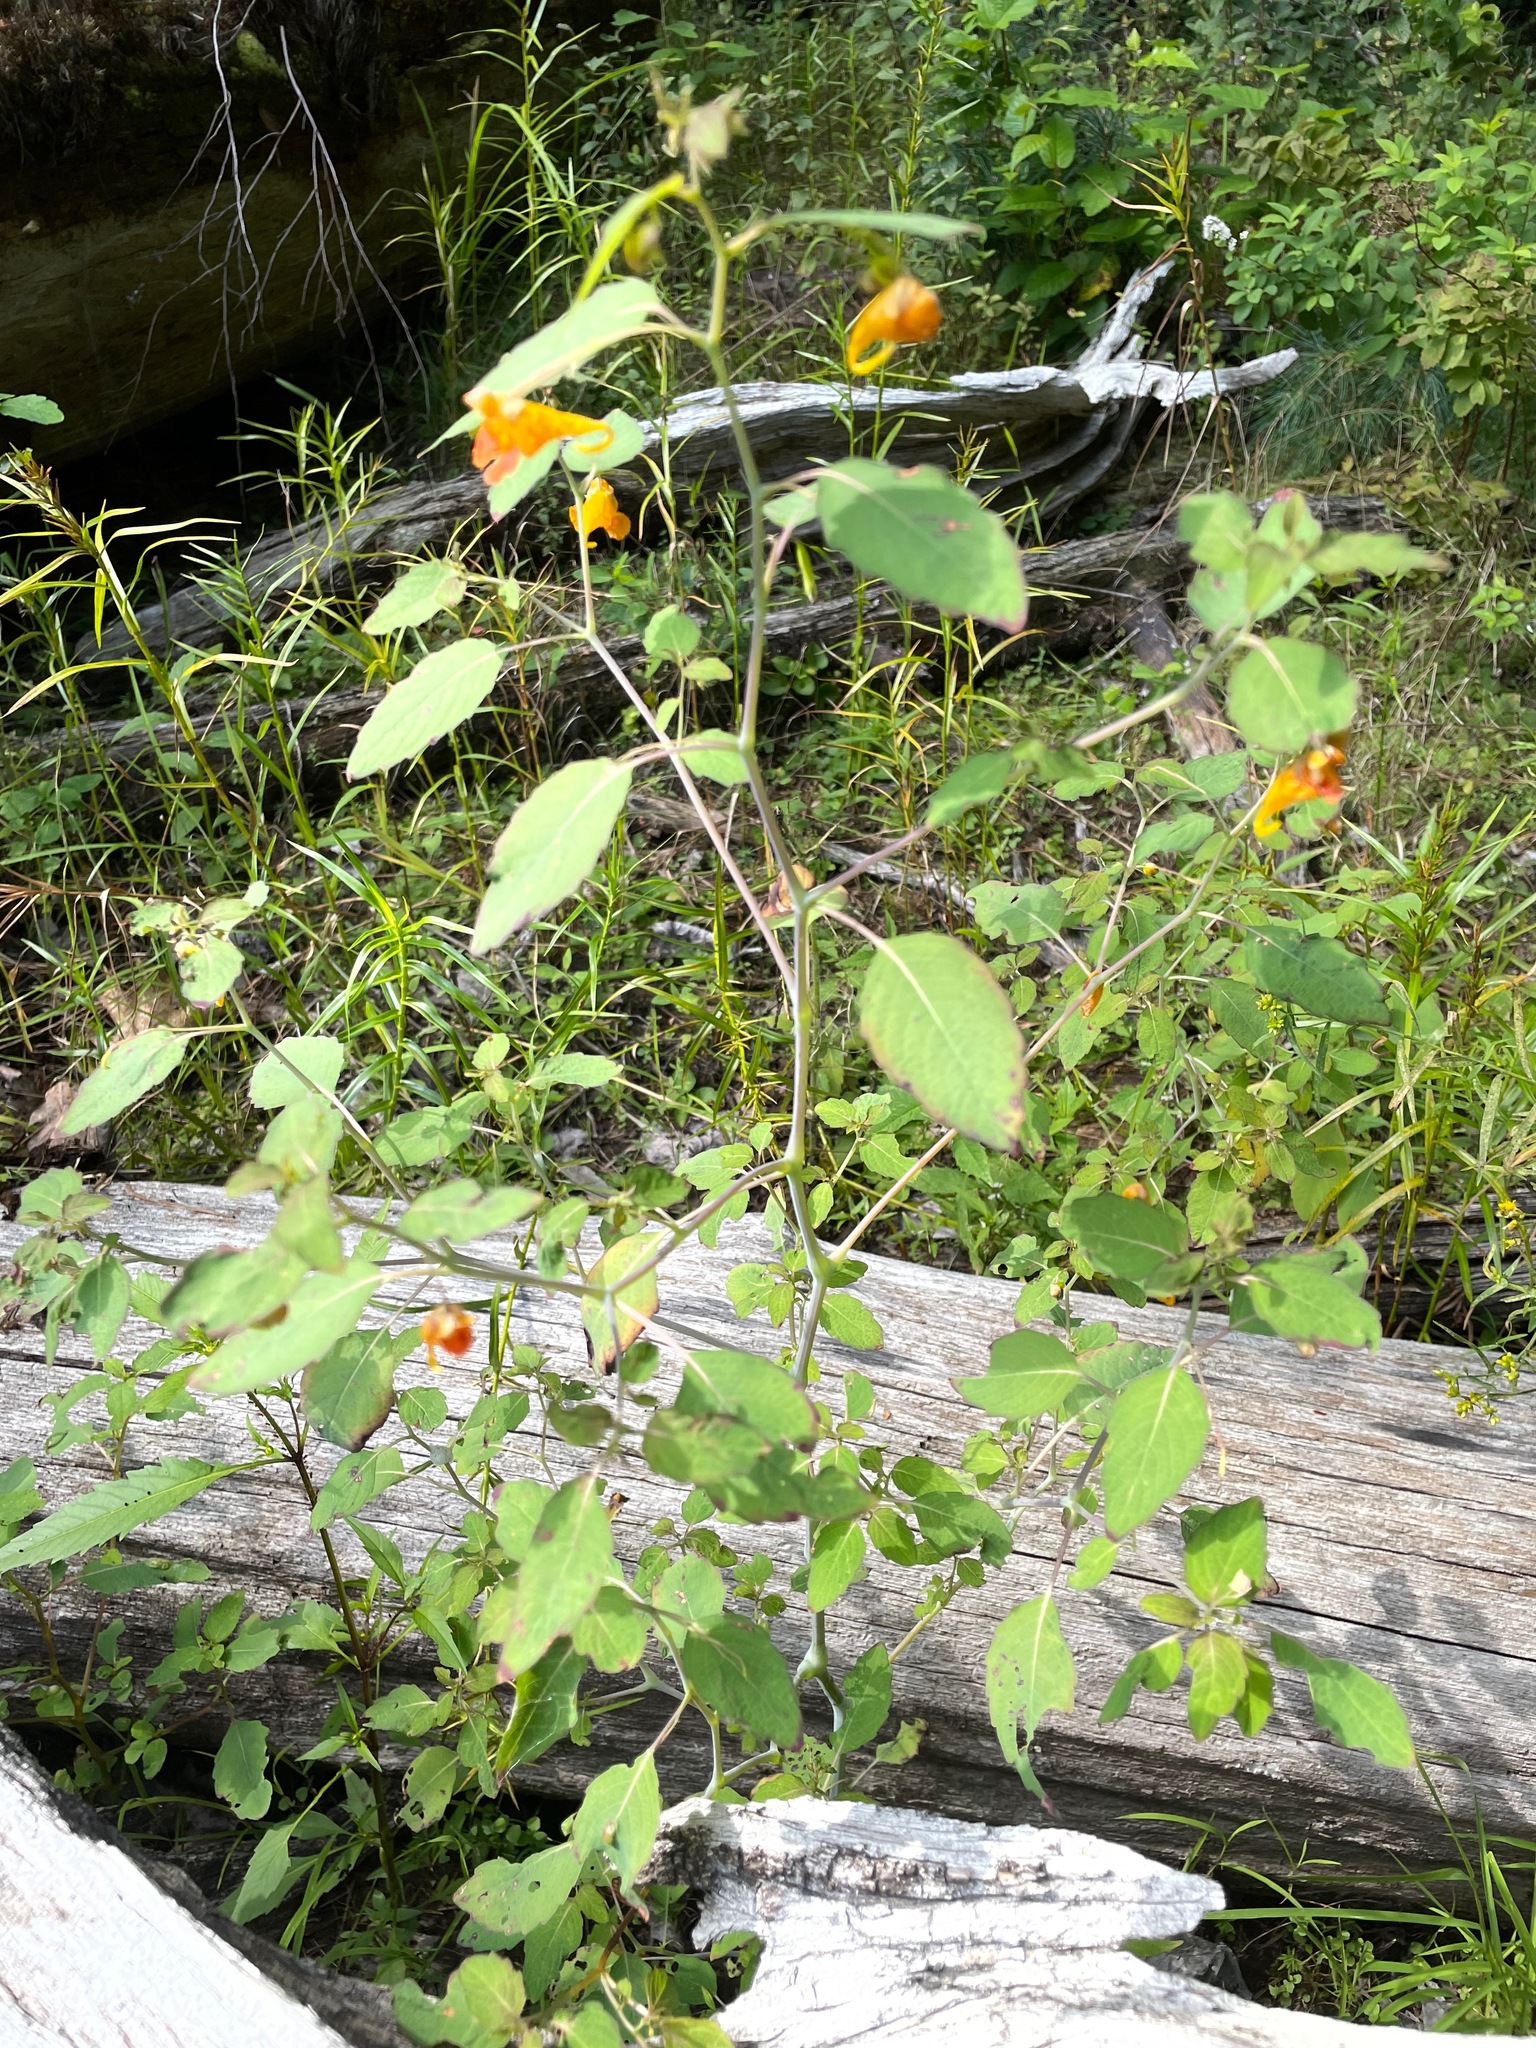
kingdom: Plantae
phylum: Tracheophyta
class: Magnoliopsida
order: Ericales
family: Balsaminaceae
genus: Impatiens
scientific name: Impatiens capensis
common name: Orange balsam
